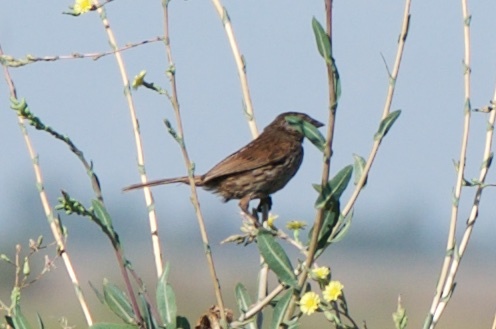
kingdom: Animalia
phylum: Chordata
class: Aves
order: Passeriformes
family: Passerellidae
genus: Melospiza
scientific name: Melospiza melodia
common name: Song sparrow
